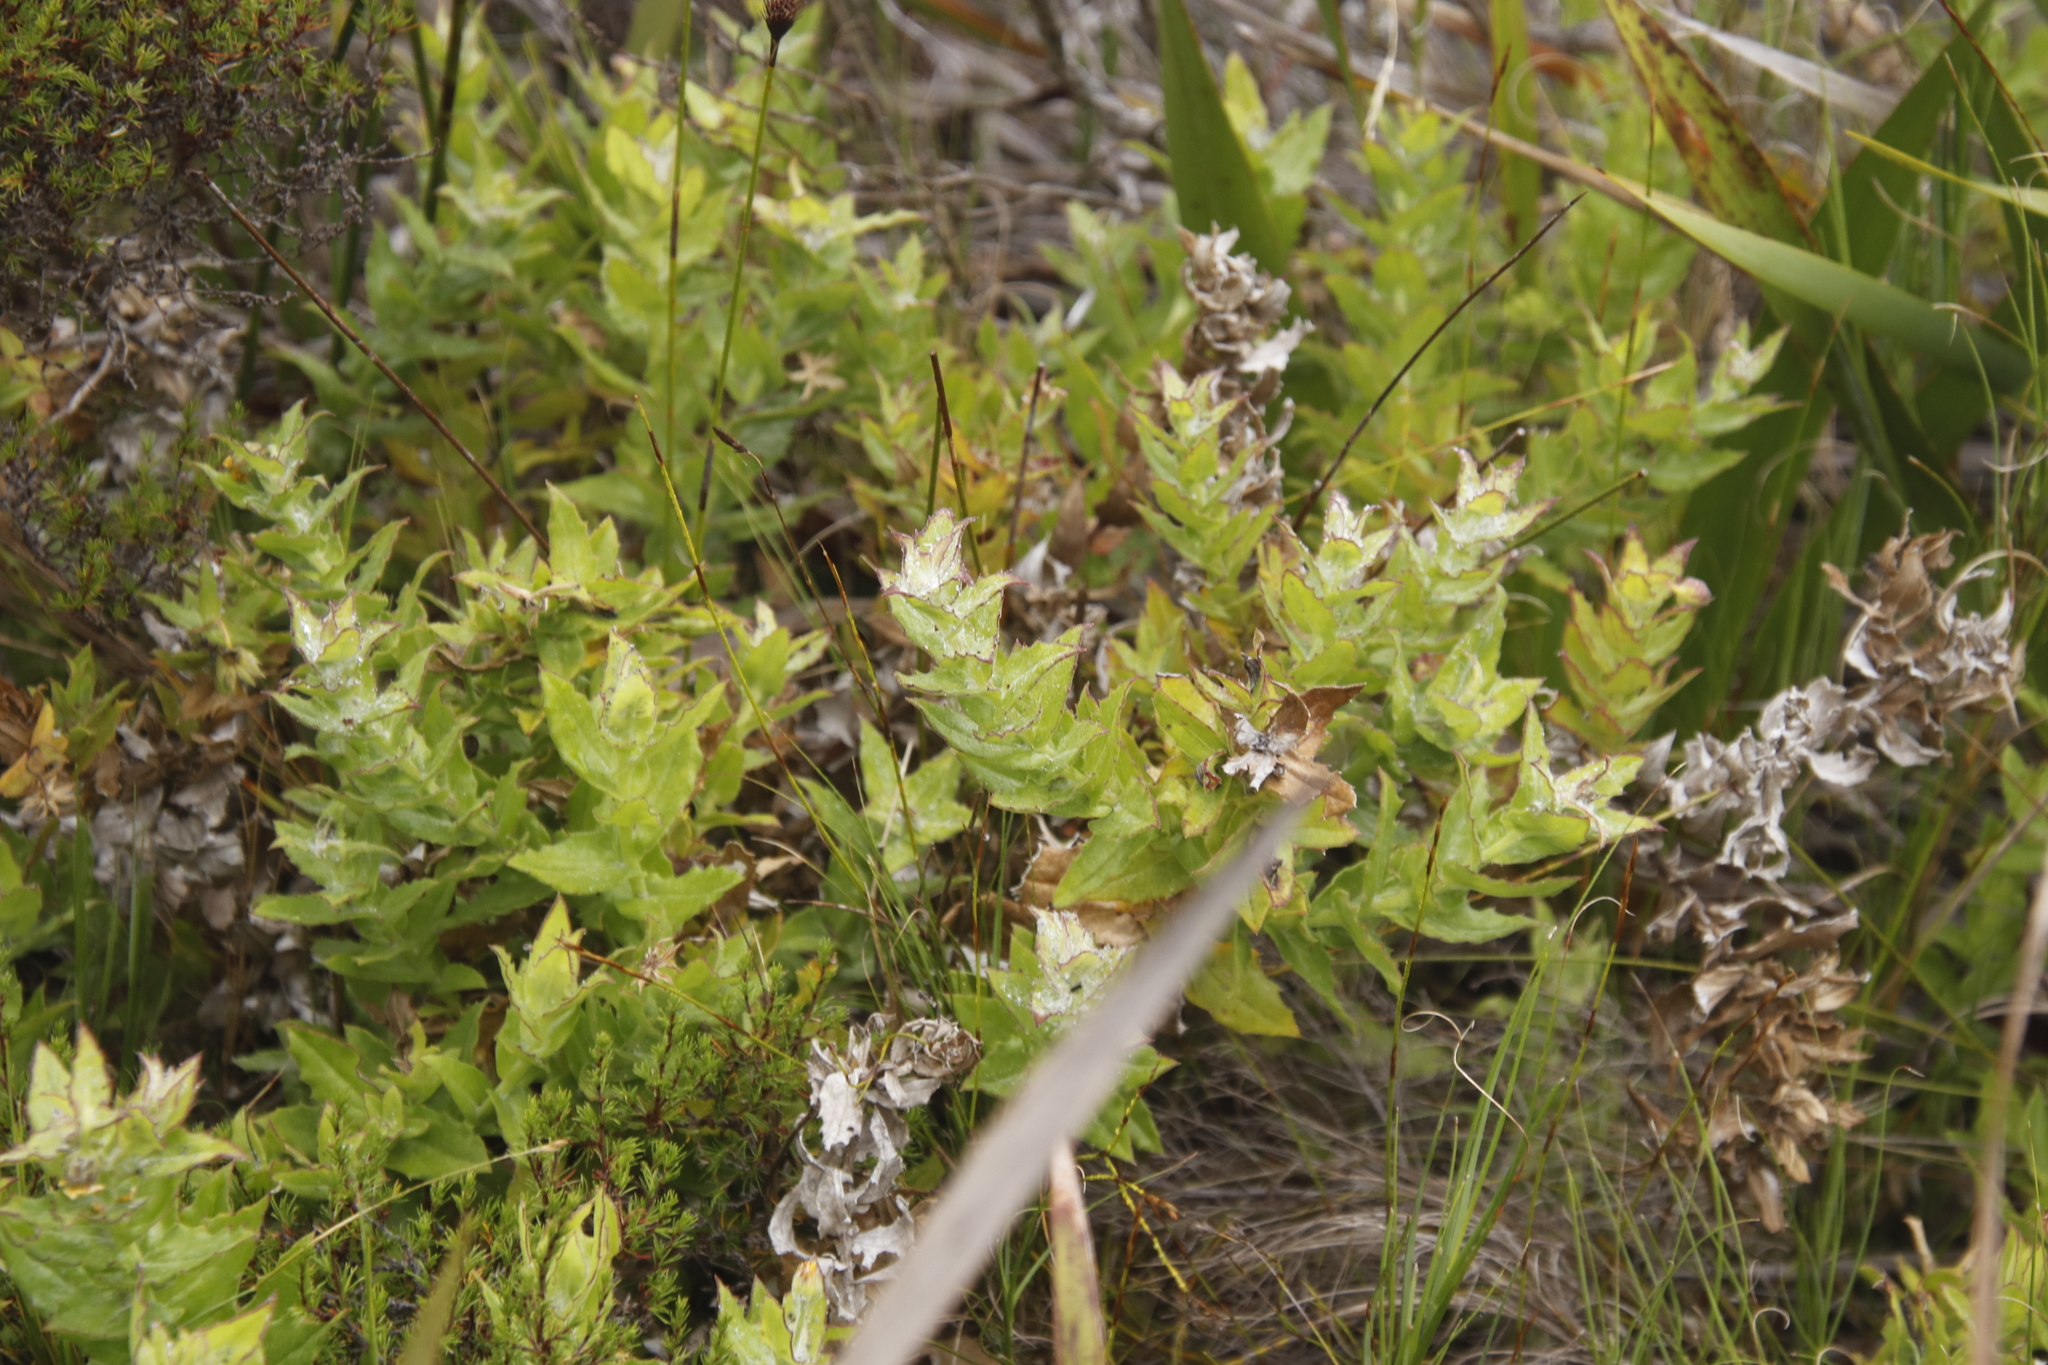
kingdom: Plantae
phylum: Tracheophyta
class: Magnoliopsida
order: Asterales
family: Asteraceae
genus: Osteospermum
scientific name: Osteospermum ilicifolium
